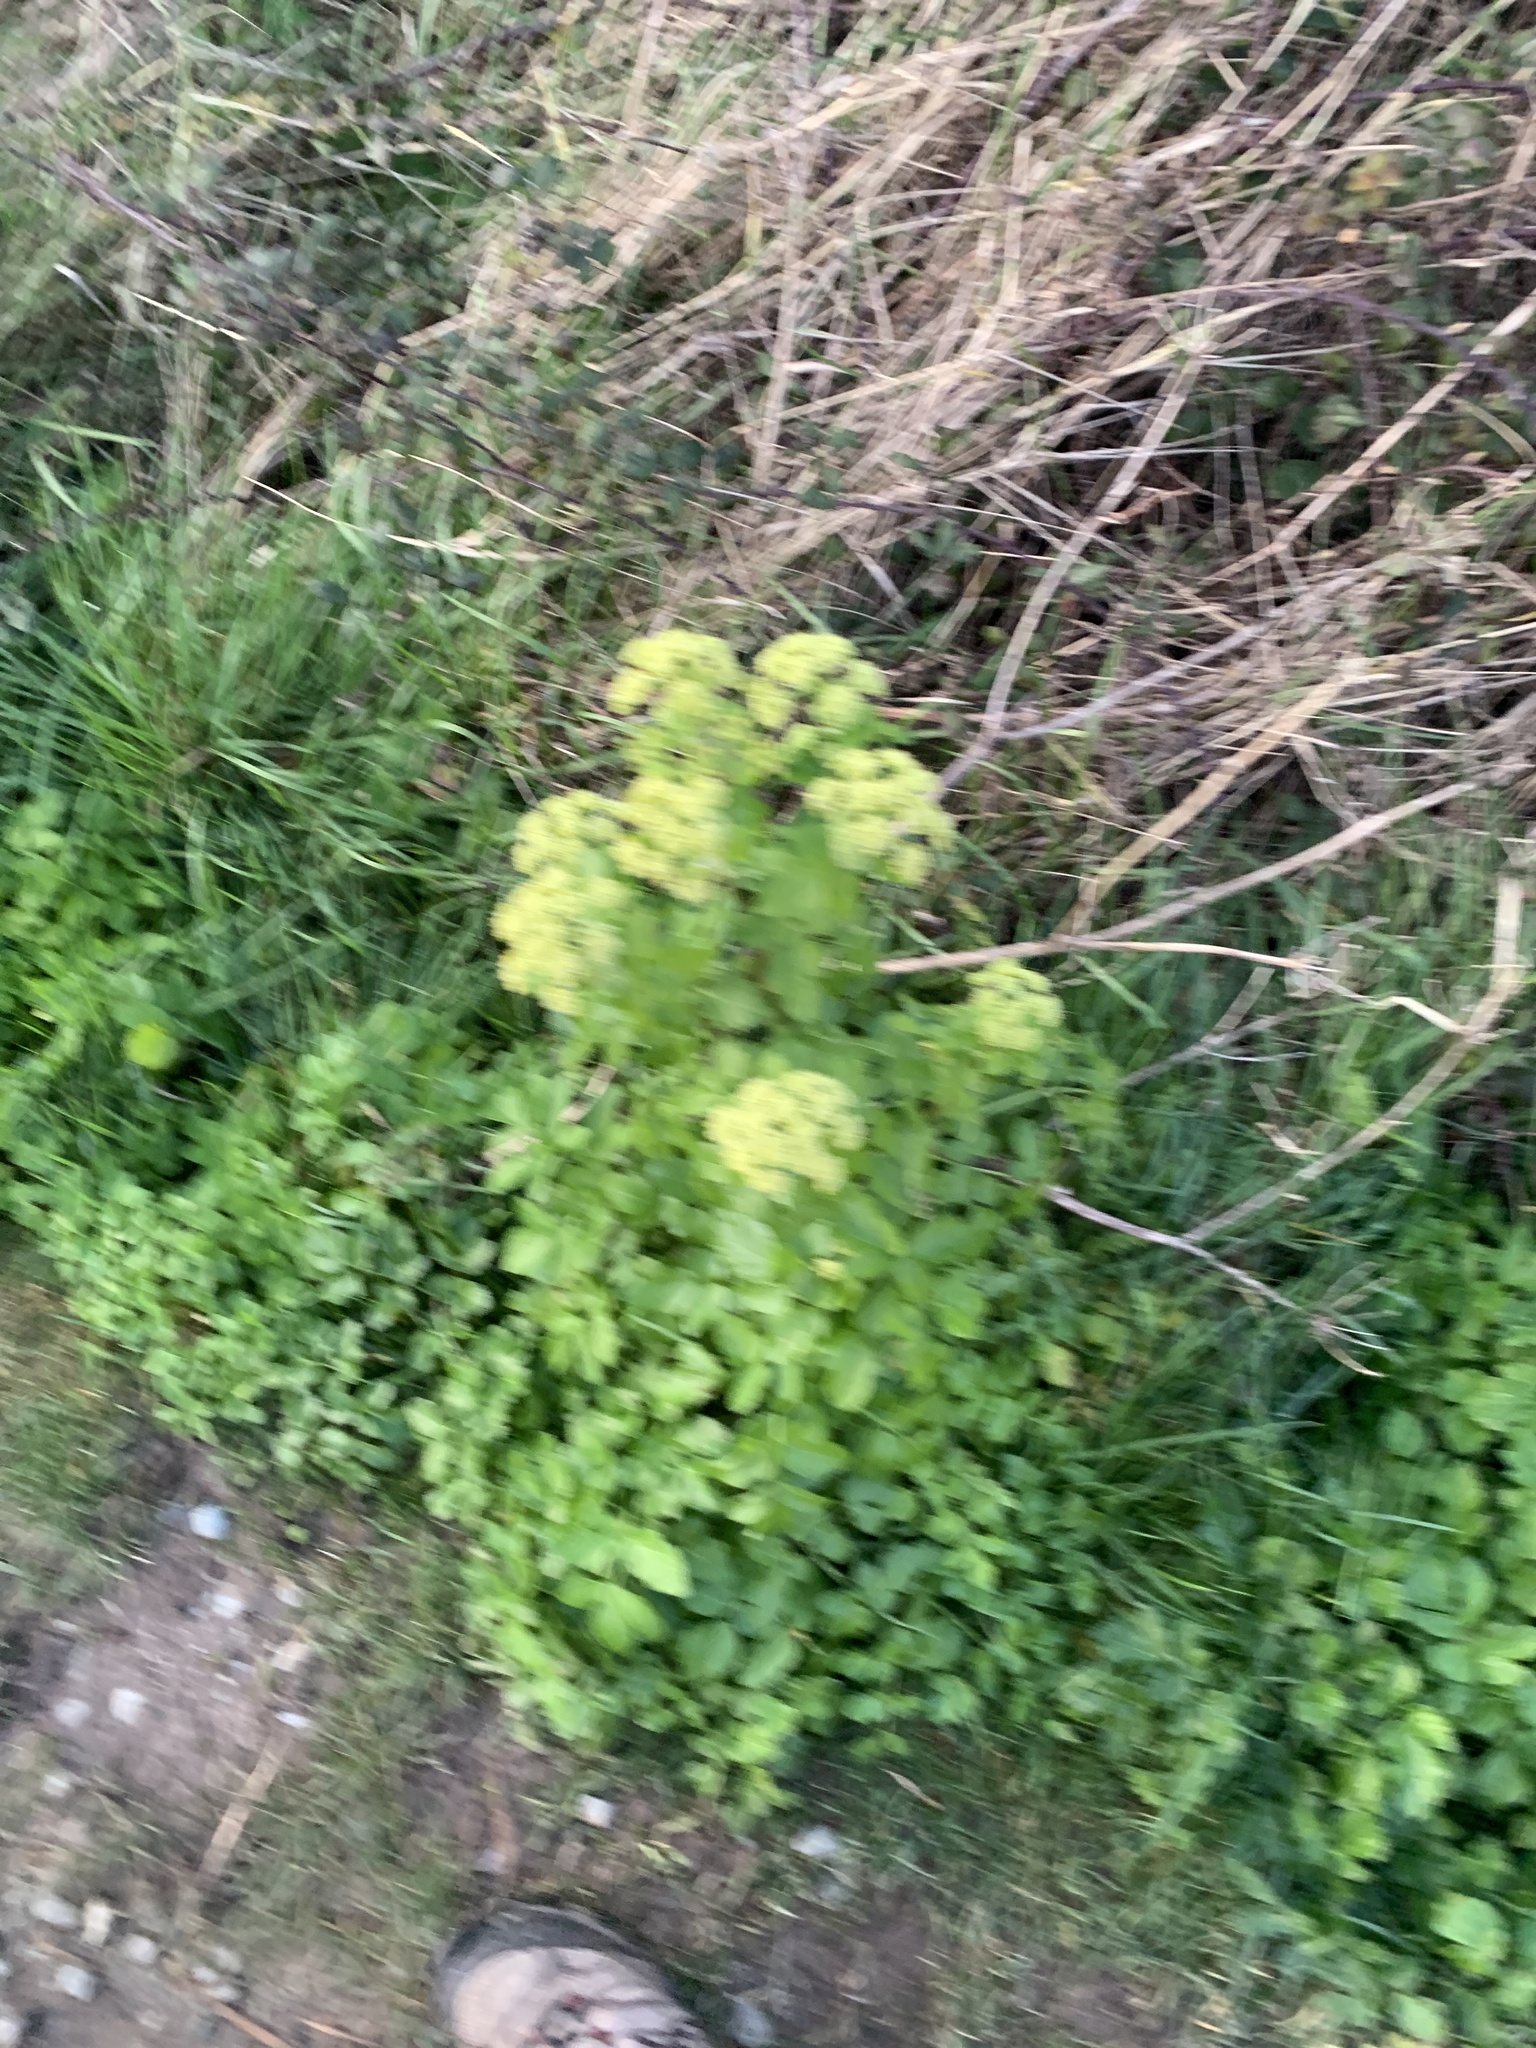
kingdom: Plantae
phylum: Tracheophyta
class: Magnoliopsida
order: Apiales
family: Apiaceae
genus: Smyrnium
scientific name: Smyrnium olusatrum
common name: Alexanders
